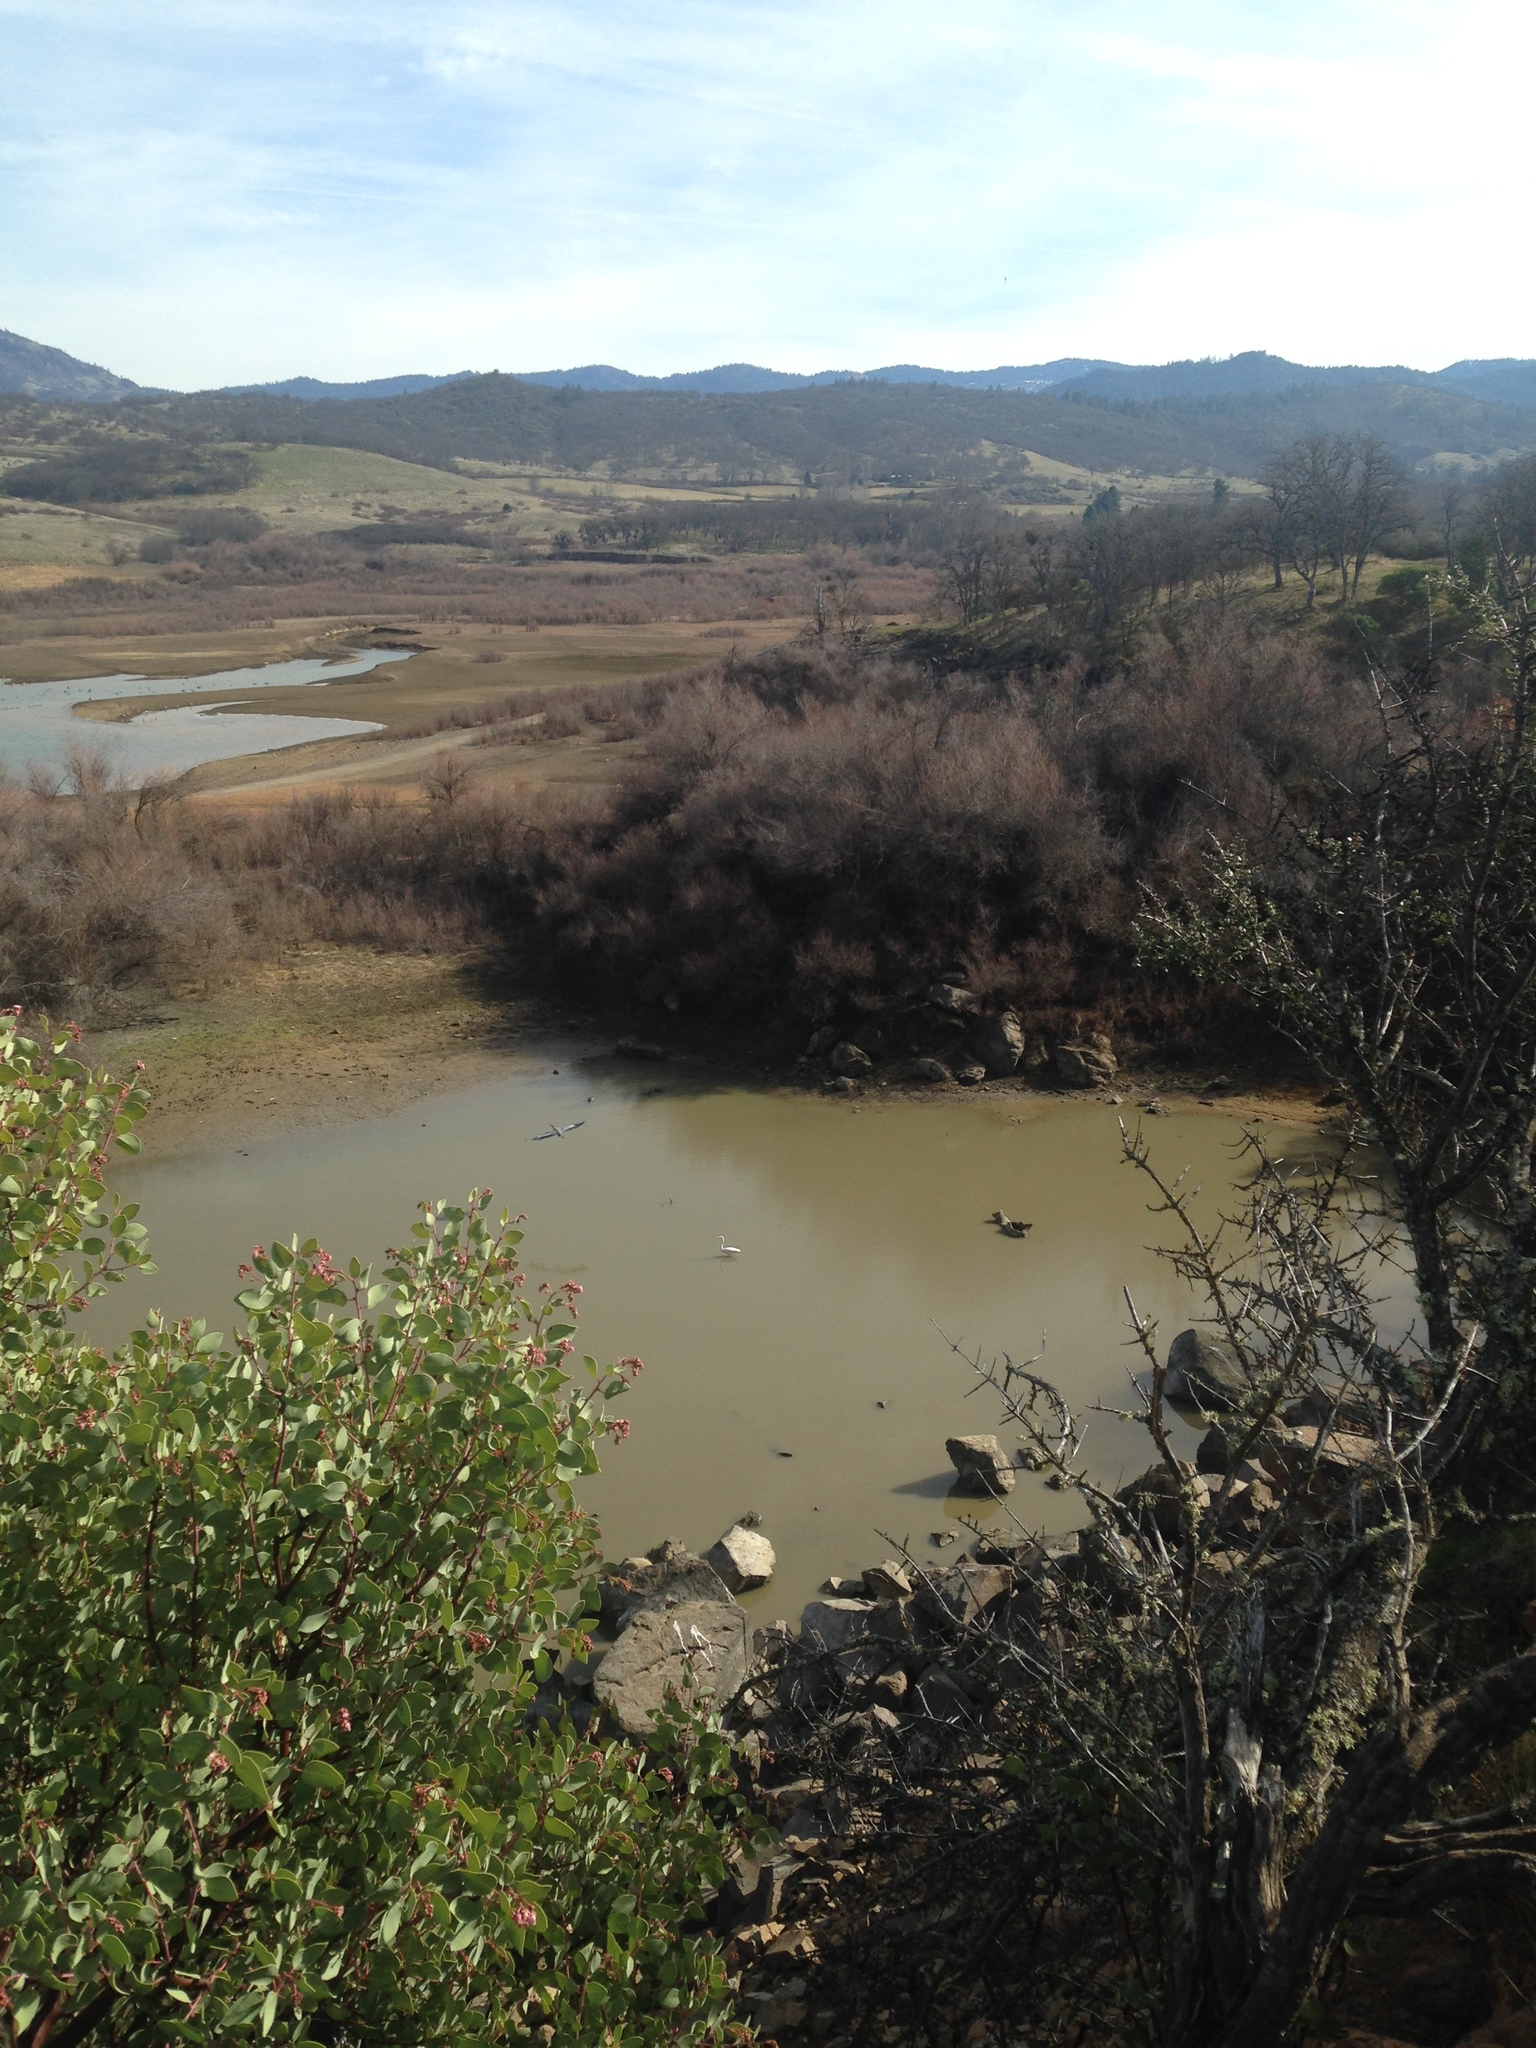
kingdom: Animalia
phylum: Chordata
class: Aves
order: Pelecaniformes
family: Ardeidae
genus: Ardea
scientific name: Ardea alba
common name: Great egret
